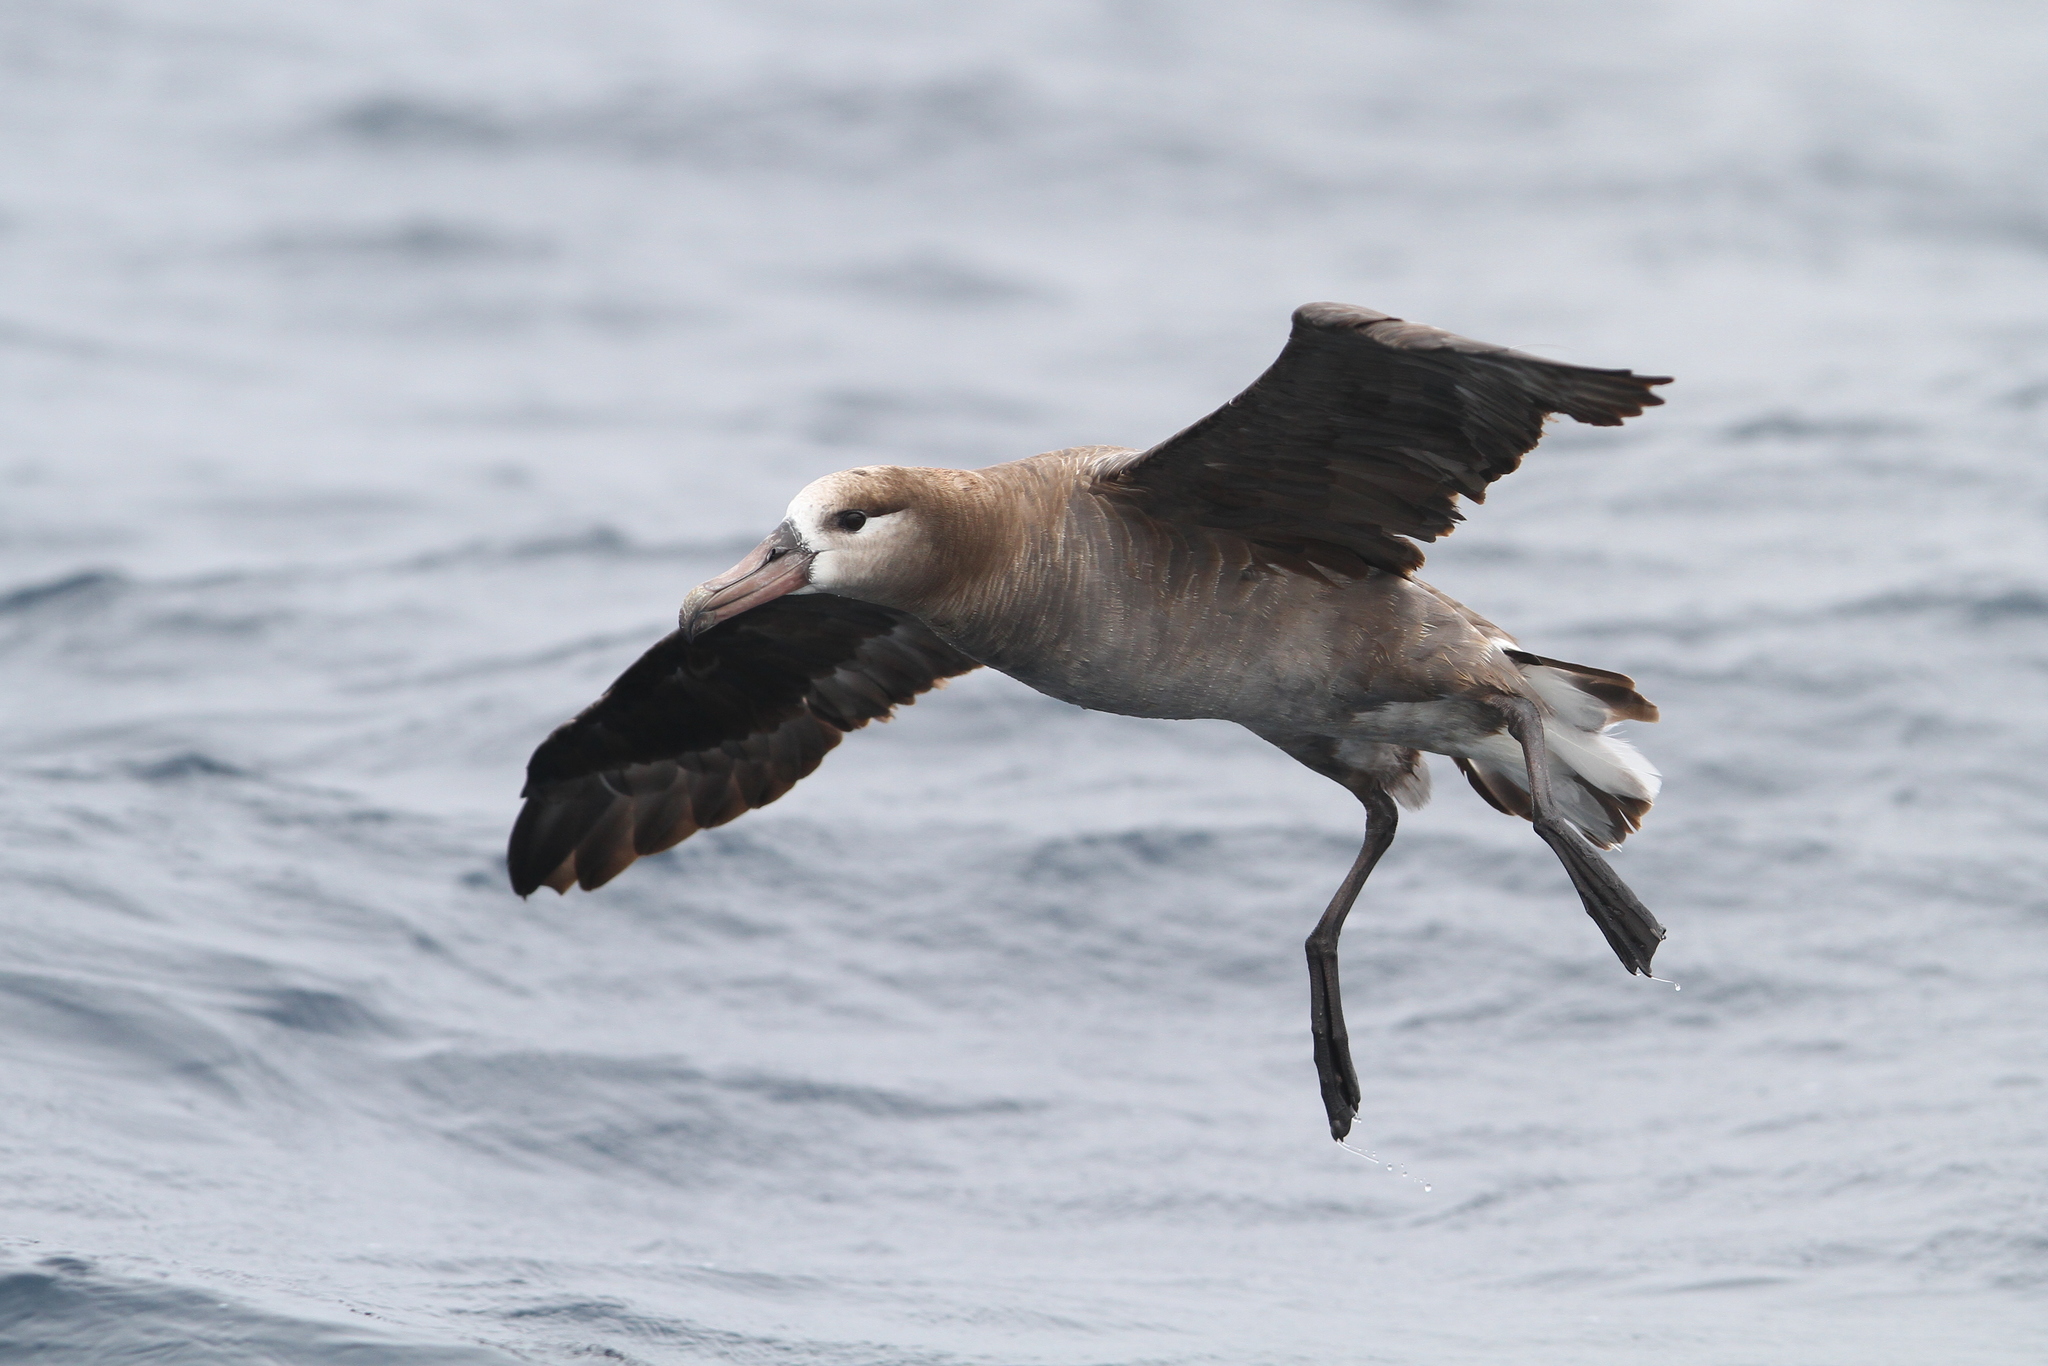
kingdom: Animalia
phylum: Chordata
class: Aves
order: Procellariiformes
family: Diomedeidae
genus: Phoebastria
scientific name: Phoebastria nigripes
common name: Black-footed albatross
